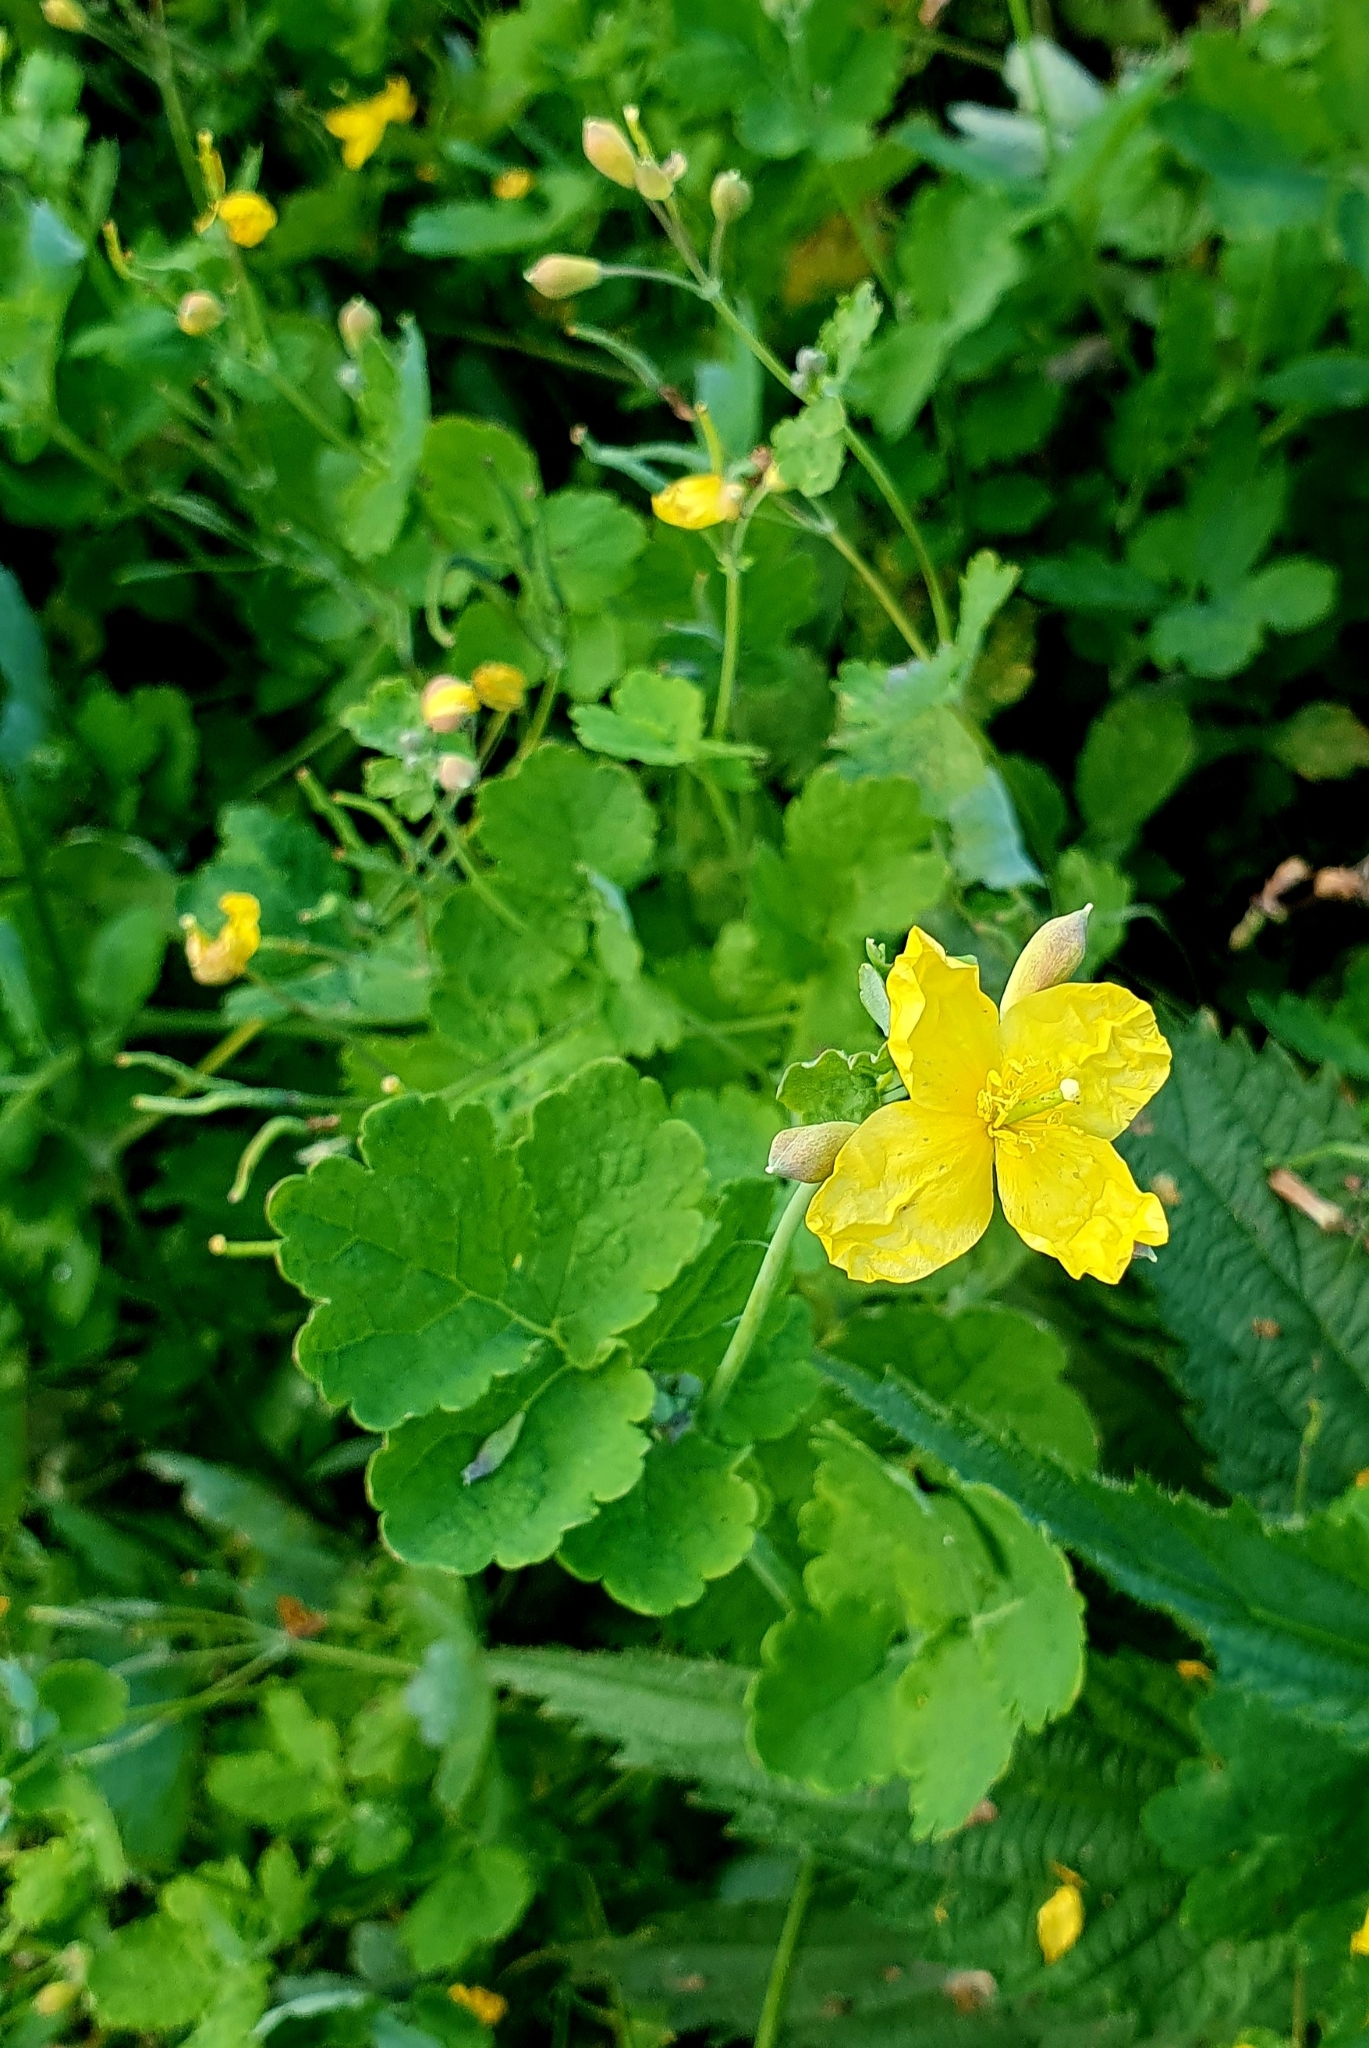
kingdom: Plantae
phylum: Tracheophyta
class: Magnoliopsida
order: Ranunculales
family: Papaveraceae
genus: Chelidonium
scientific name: Chelidonium majus
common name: Greater celandine
